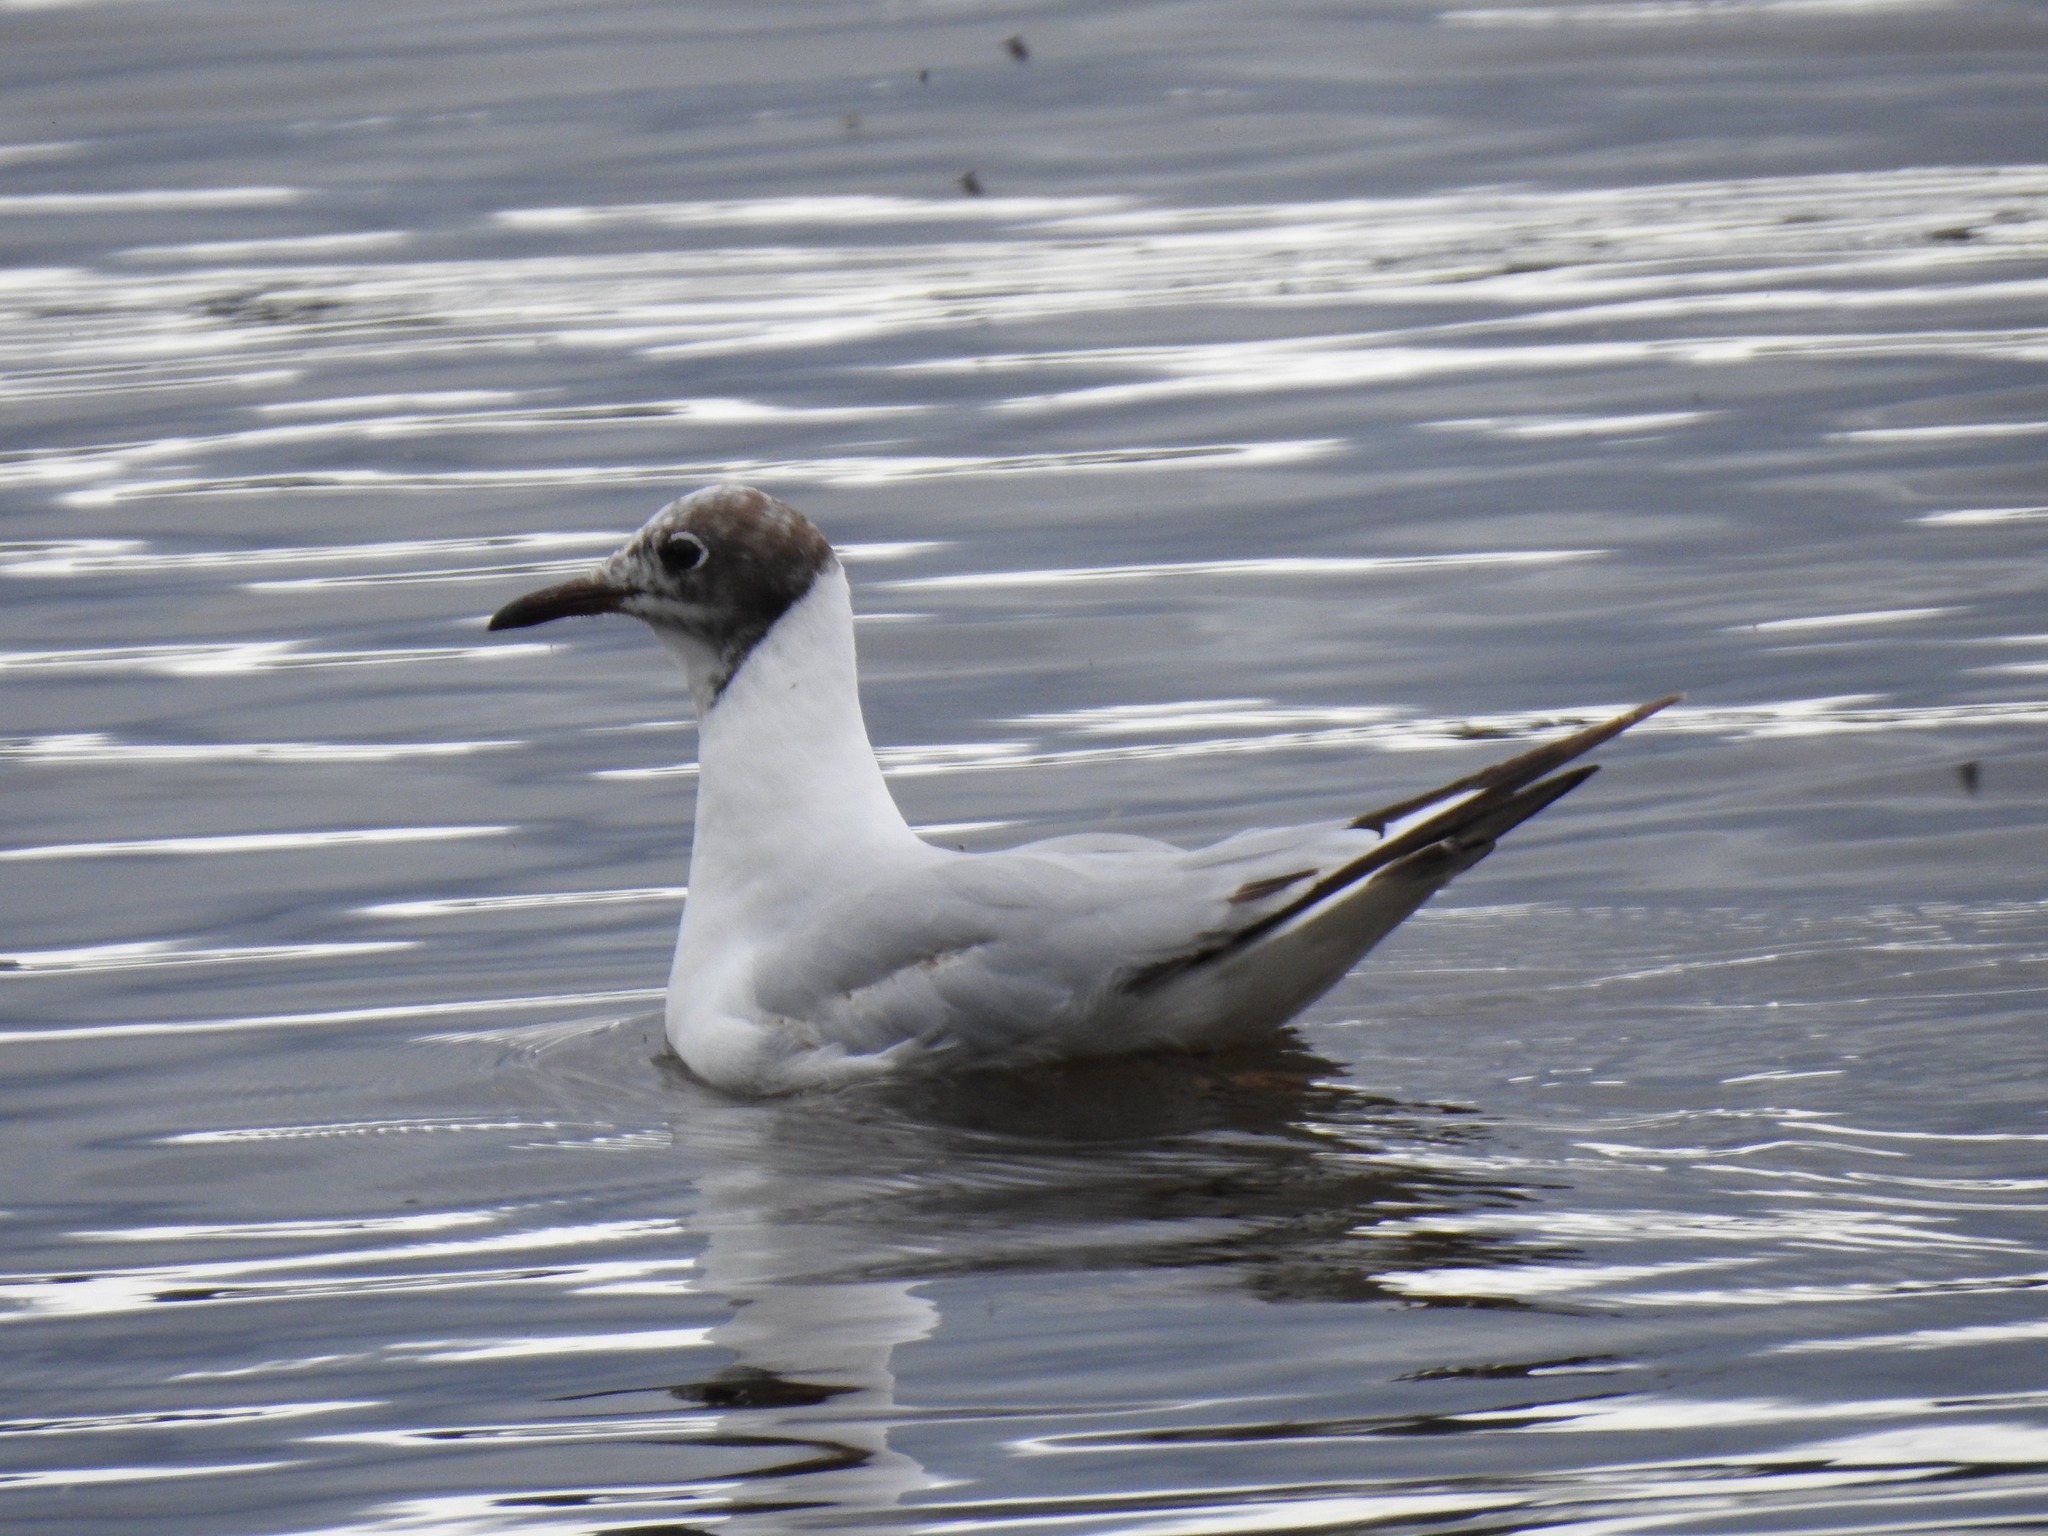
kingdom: Animalia
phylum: Chordata
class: Aves
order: Charadriiformes
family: Laridae
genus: Chroicocephalus
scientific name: Chroicocephalus ridibundus
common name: Black-headed gull
